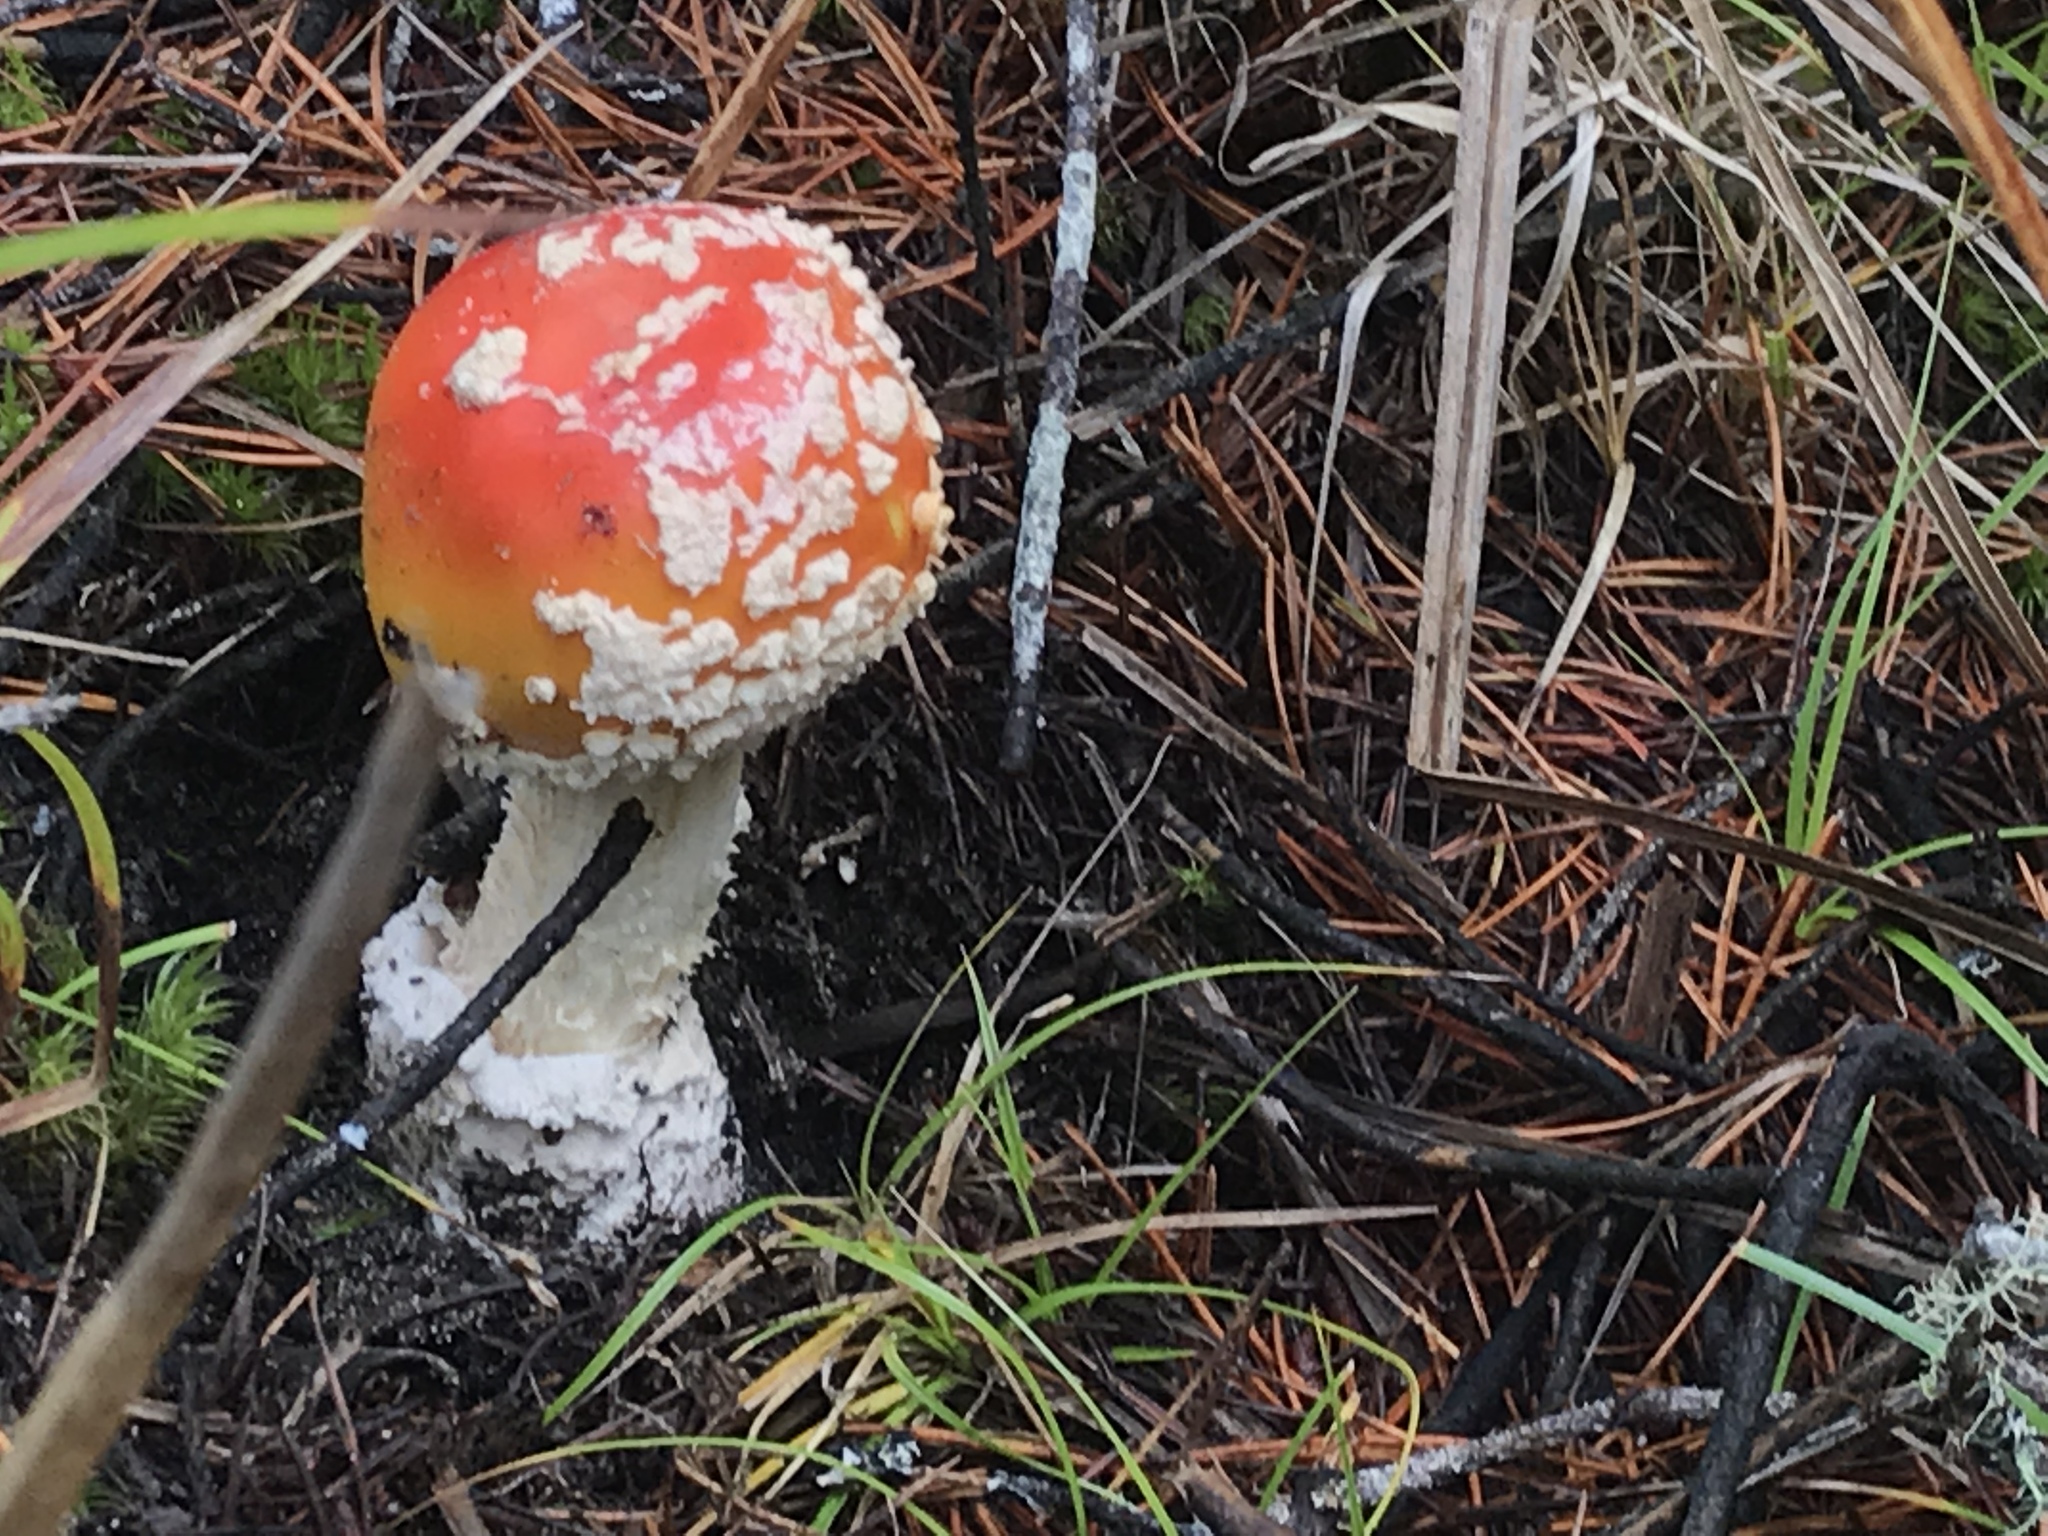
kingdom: Fungi
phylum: Basidiomycota
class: Agaricomycetes
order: Agaricales
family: Amanitaceae
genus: Amanita
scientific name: Amanita muscaria
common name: Fly agaric
